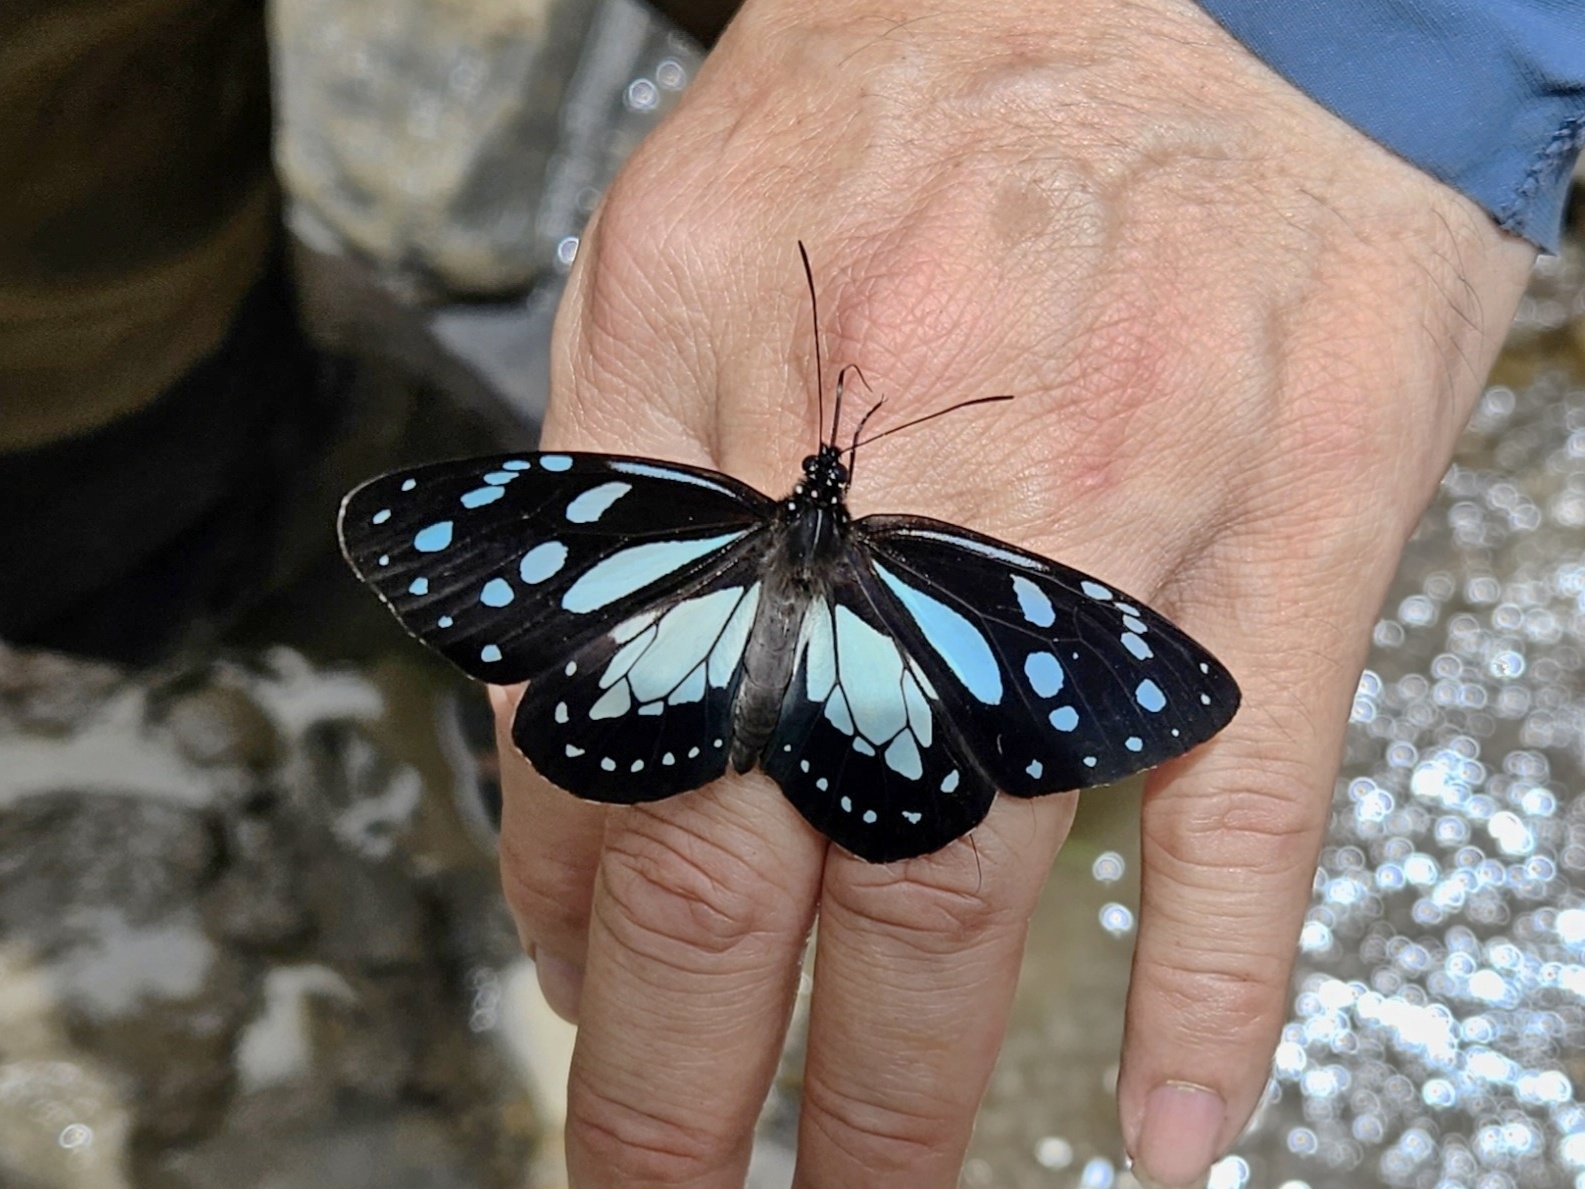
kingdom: Animalia
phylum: Arthropoda
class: Insecta
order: Lepidoptera
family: Nymphalidae
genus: Miriamica
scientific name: Miriamica weiskei
